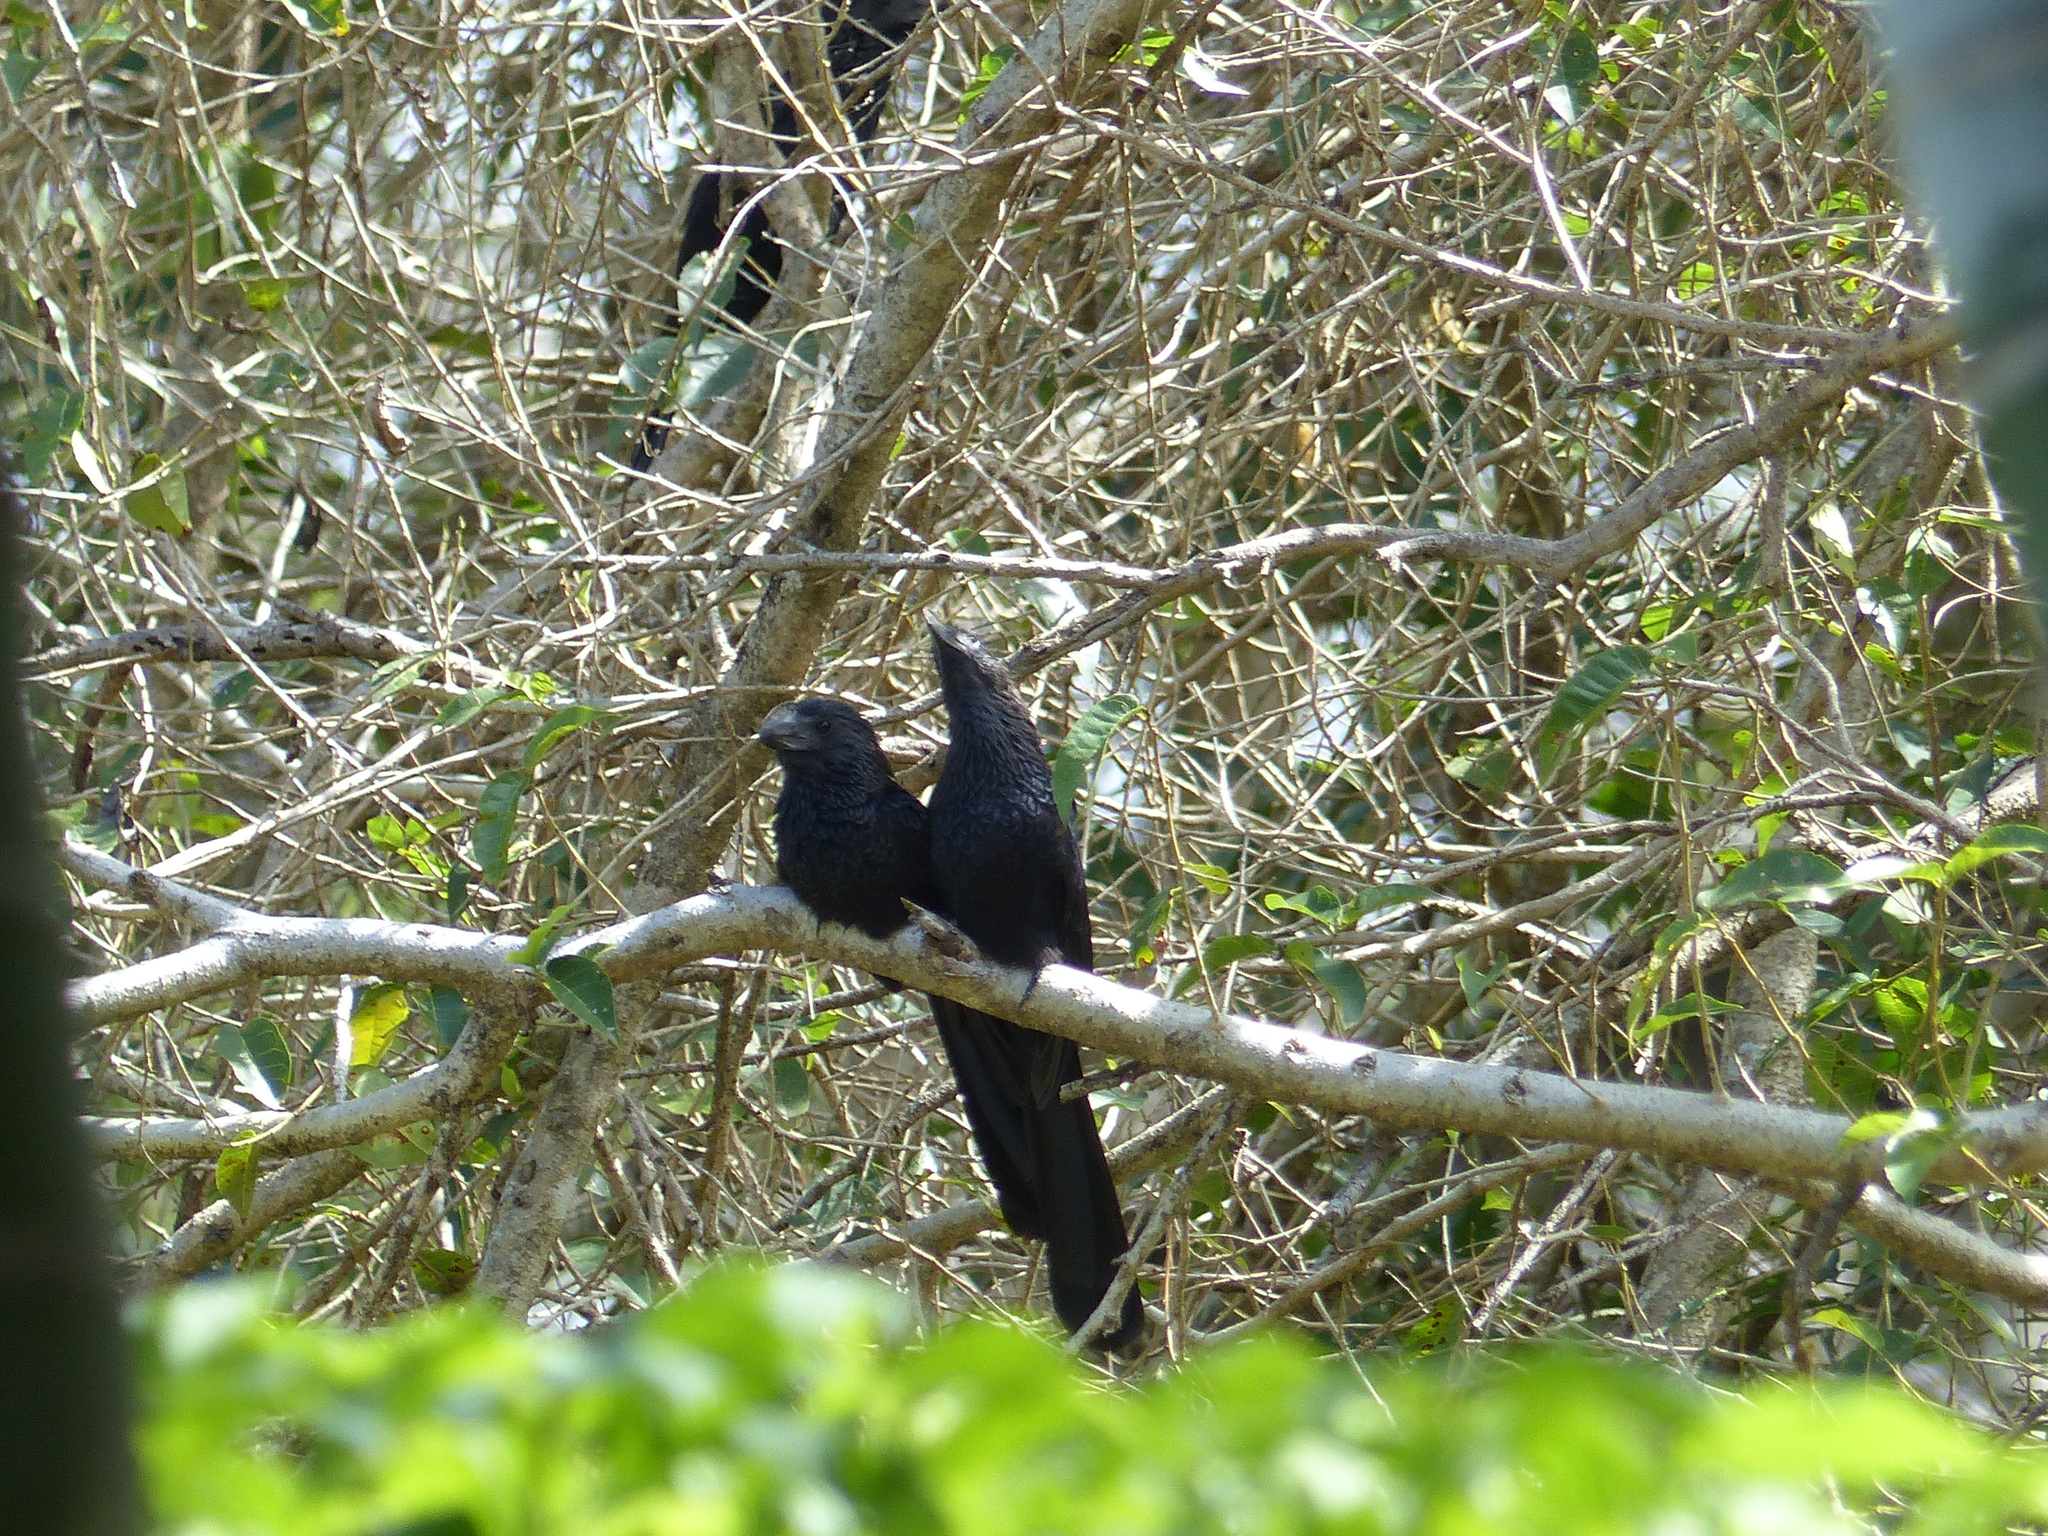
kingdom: Animalia
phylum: Chordata
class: Aves
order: Cuculiformes
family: Cuculidae
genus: Crotophaga
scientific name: Crotophaga ani
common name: Smooth-billed ani
